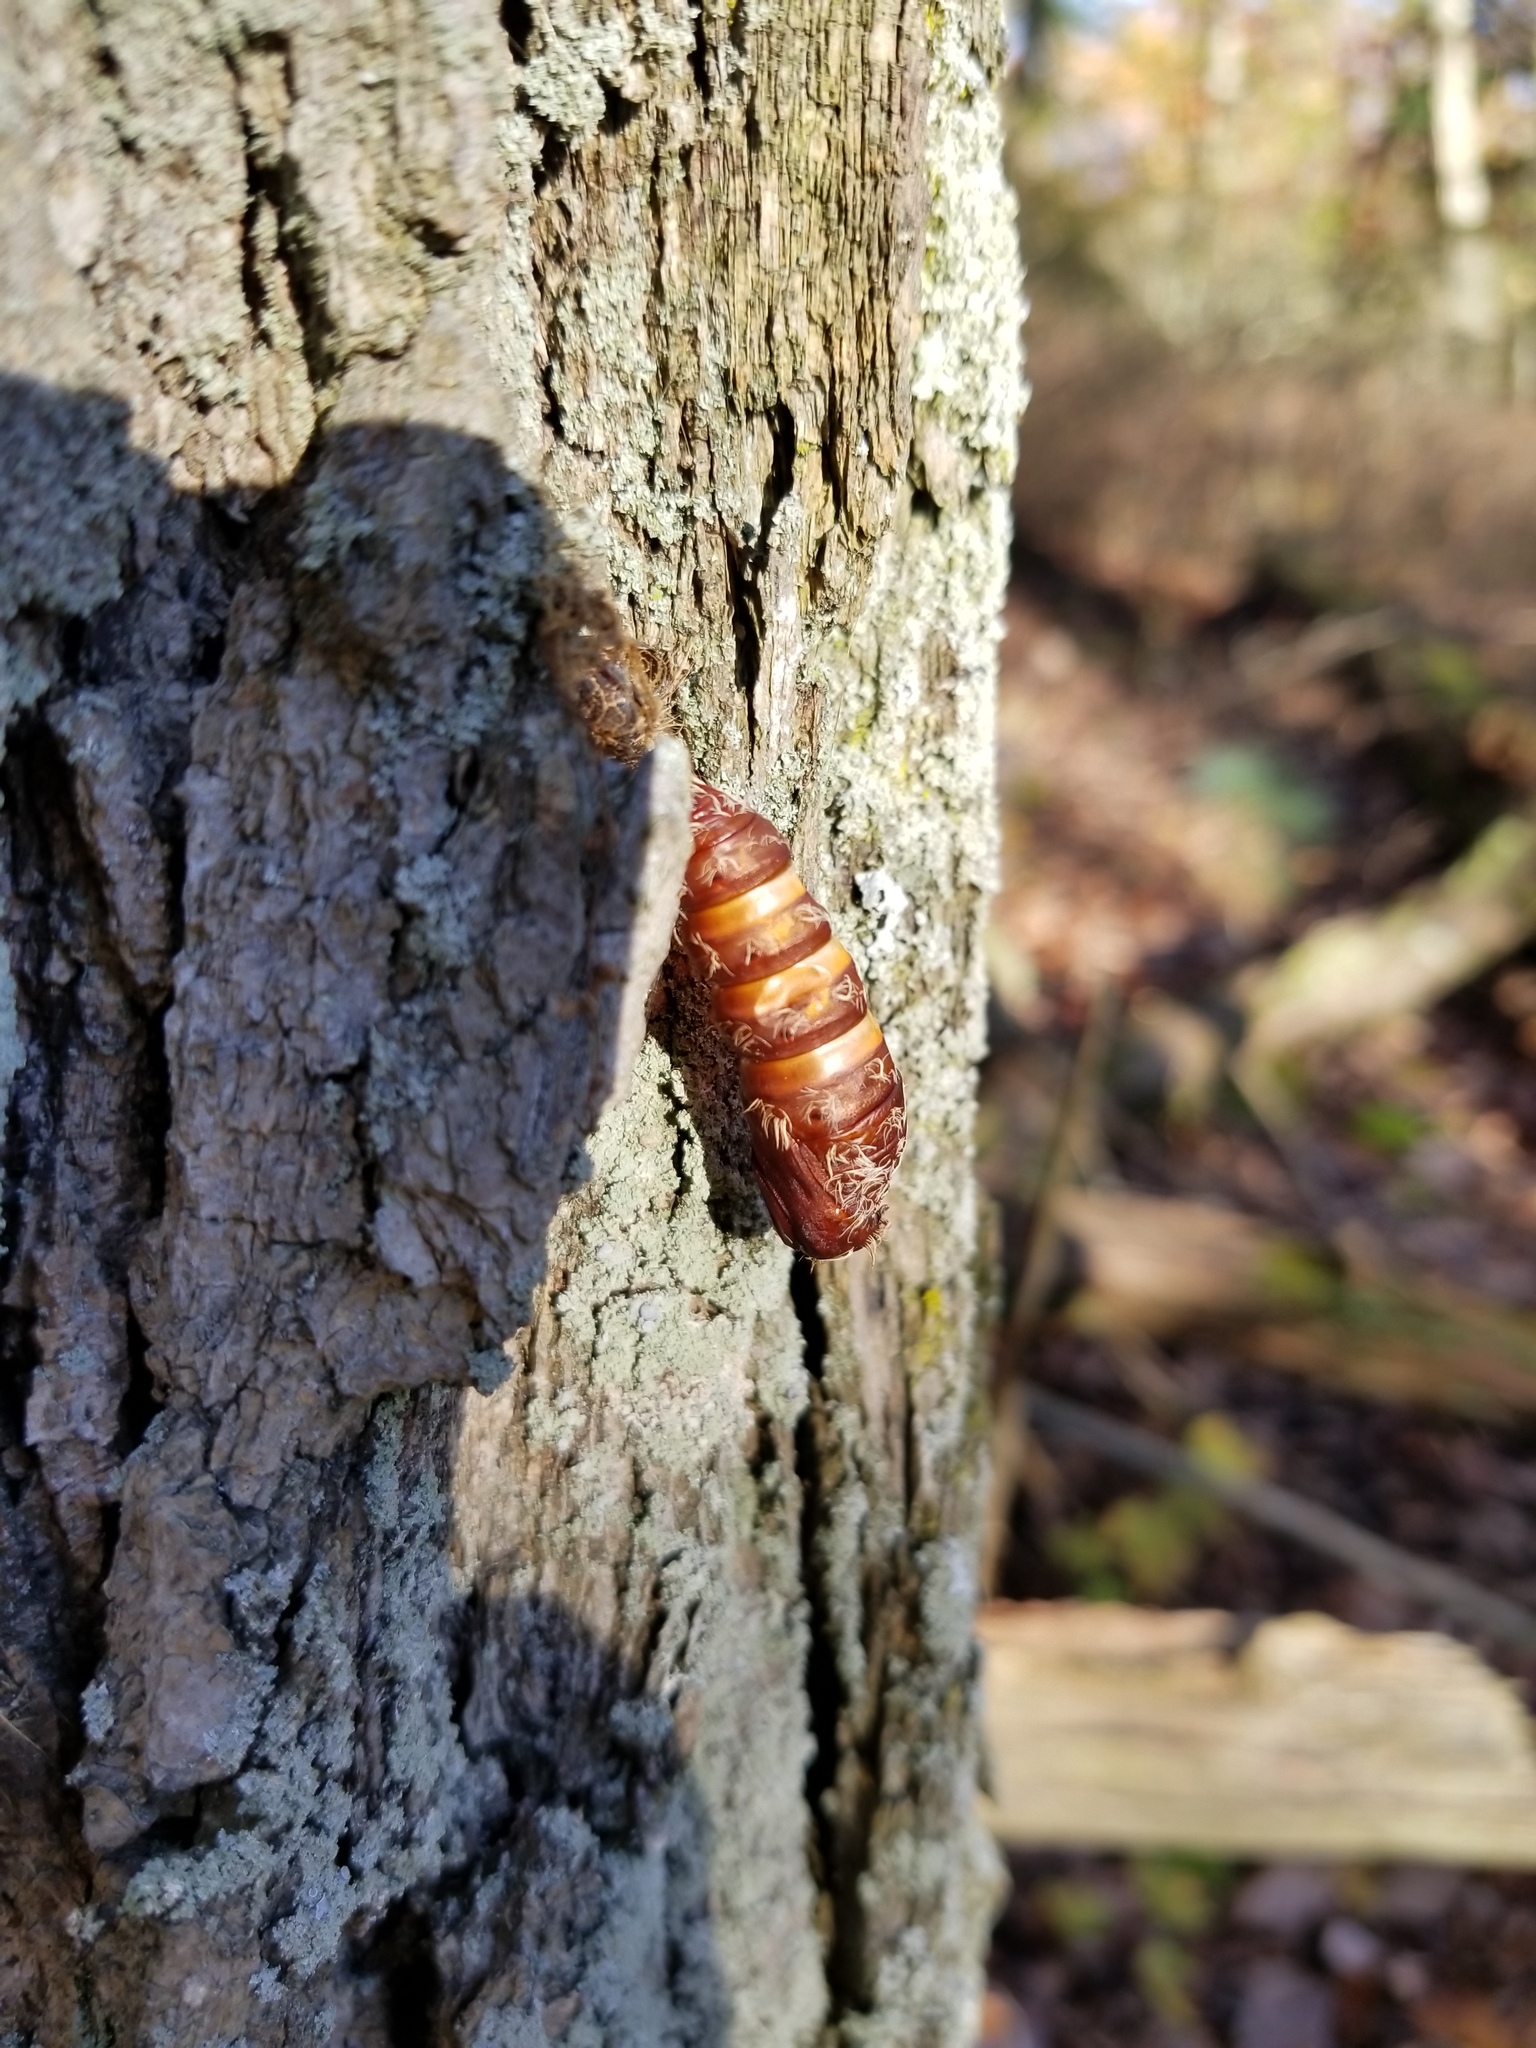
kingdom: Animalia
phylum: Arthropoda
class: Insecta
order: Lepidoptera
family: Erebidae
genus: Lymantria
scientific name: Lymantria dispar
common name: Gypsy moth
